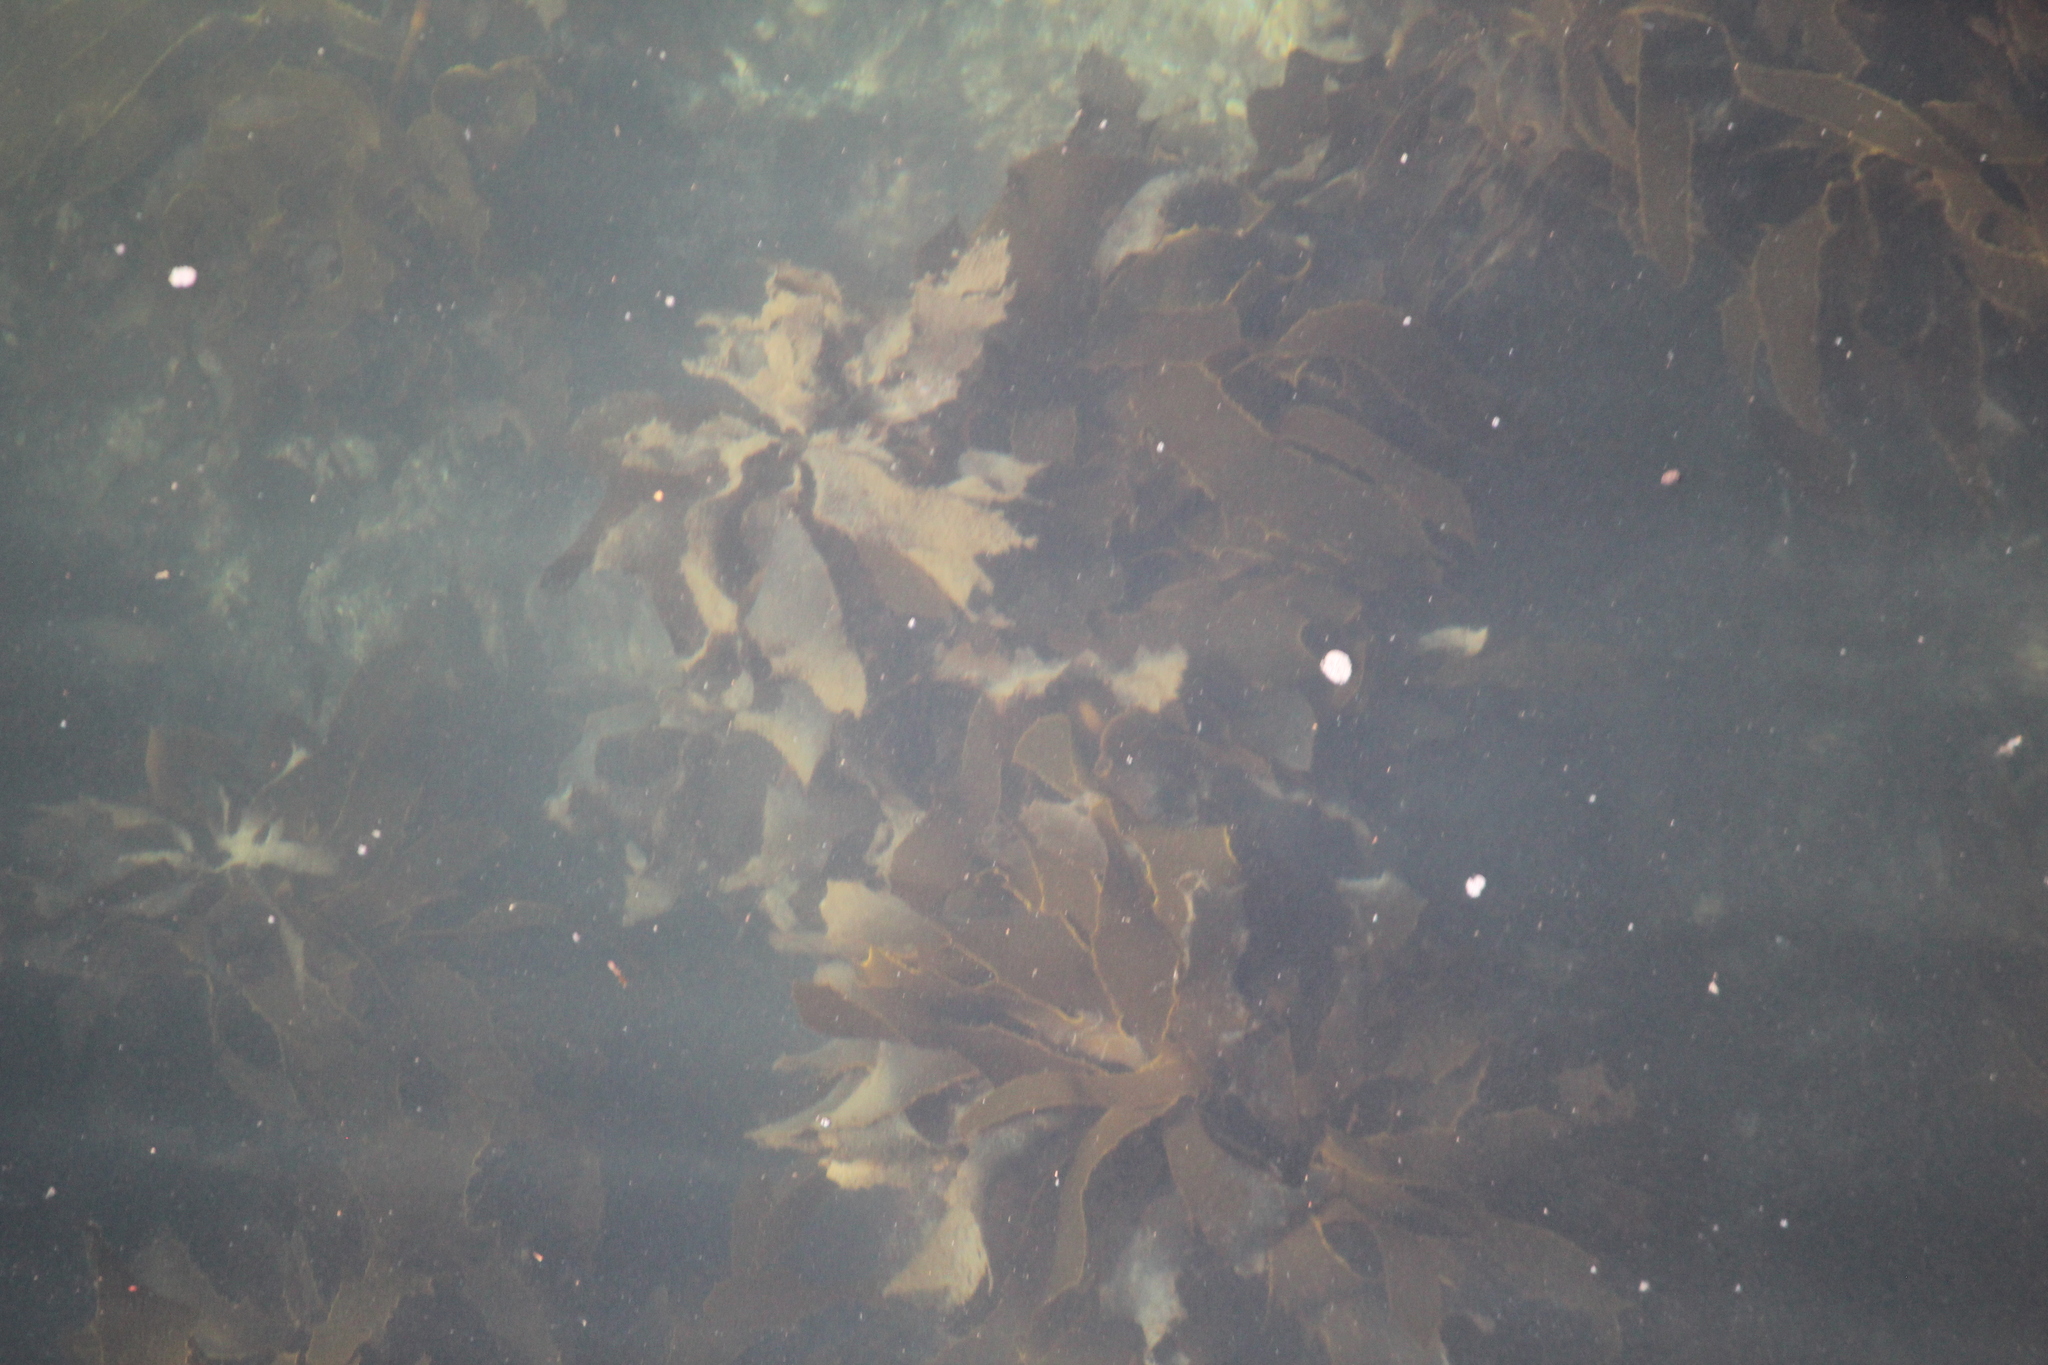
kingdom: Chromista
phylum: Ochrophyta
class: Phaeophyceae
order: Laminariales
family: Lessoniaceae
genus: Ecklonia
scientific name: Ecklonia radiata
